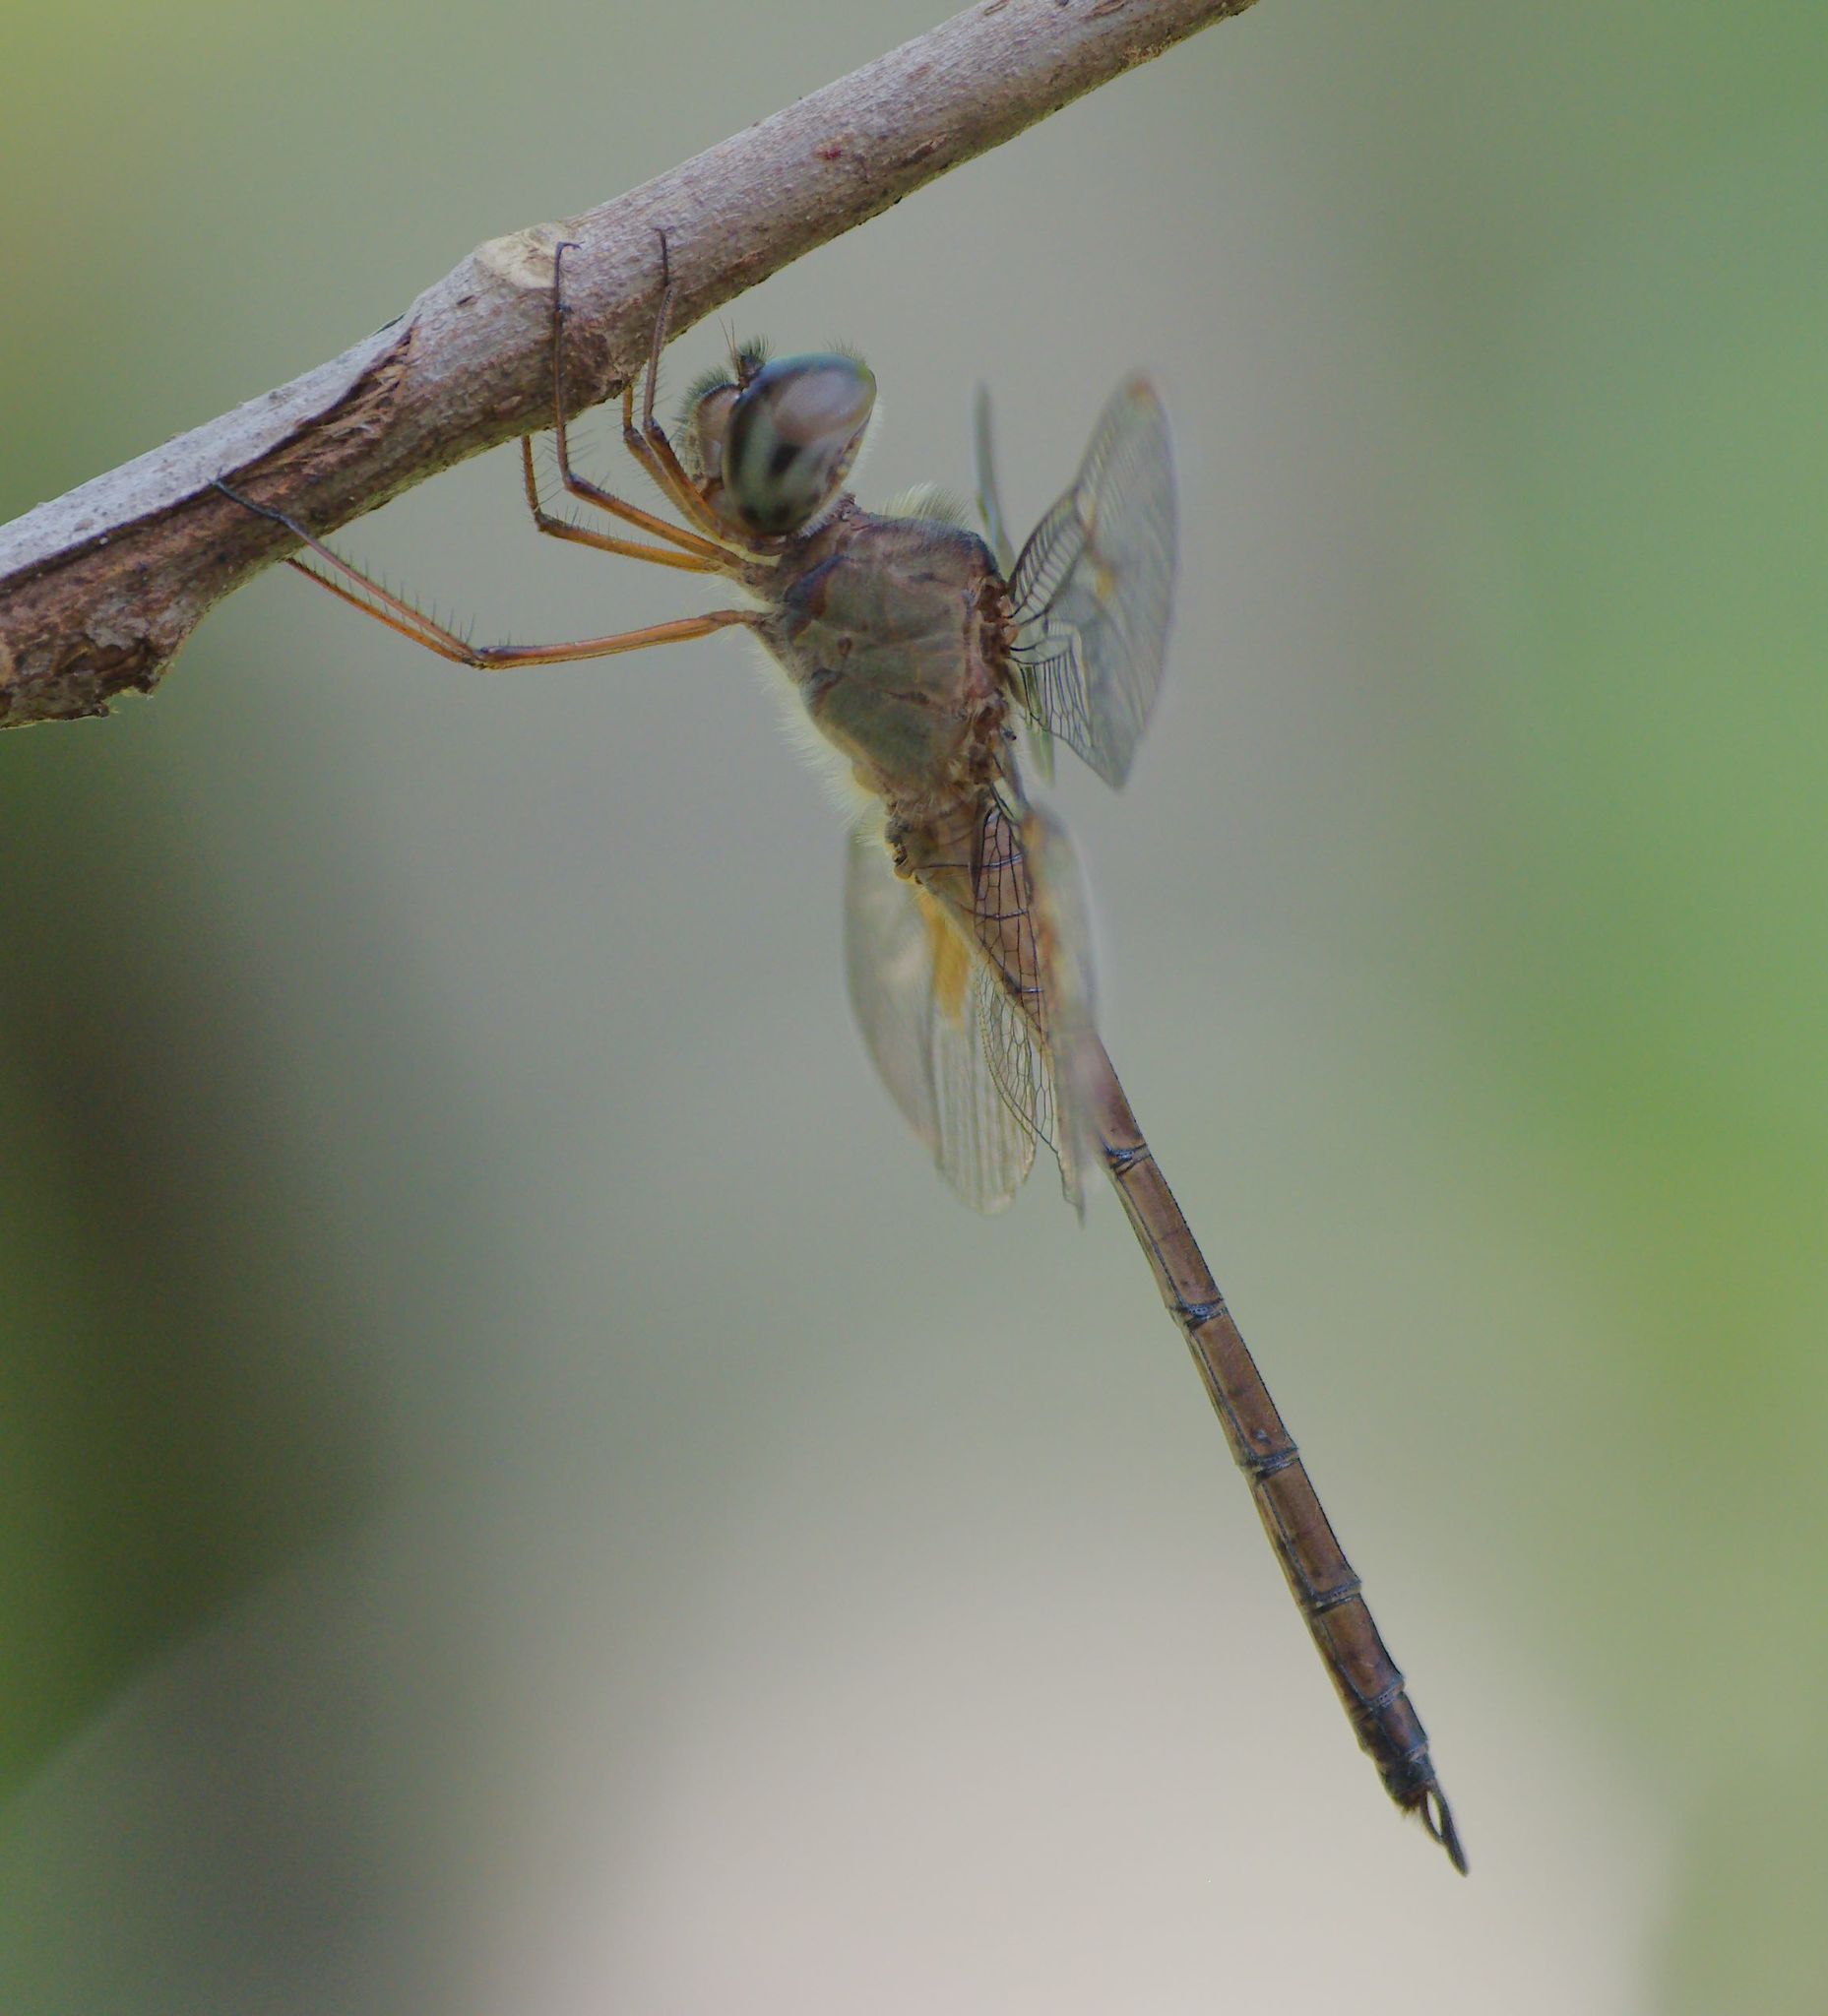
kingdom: Animalia
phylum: Arthropoda
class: Insecta
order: Odonata
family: Libellulidae
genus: Tholymis
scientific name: Tholymis citrina
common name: Evening skimmer
